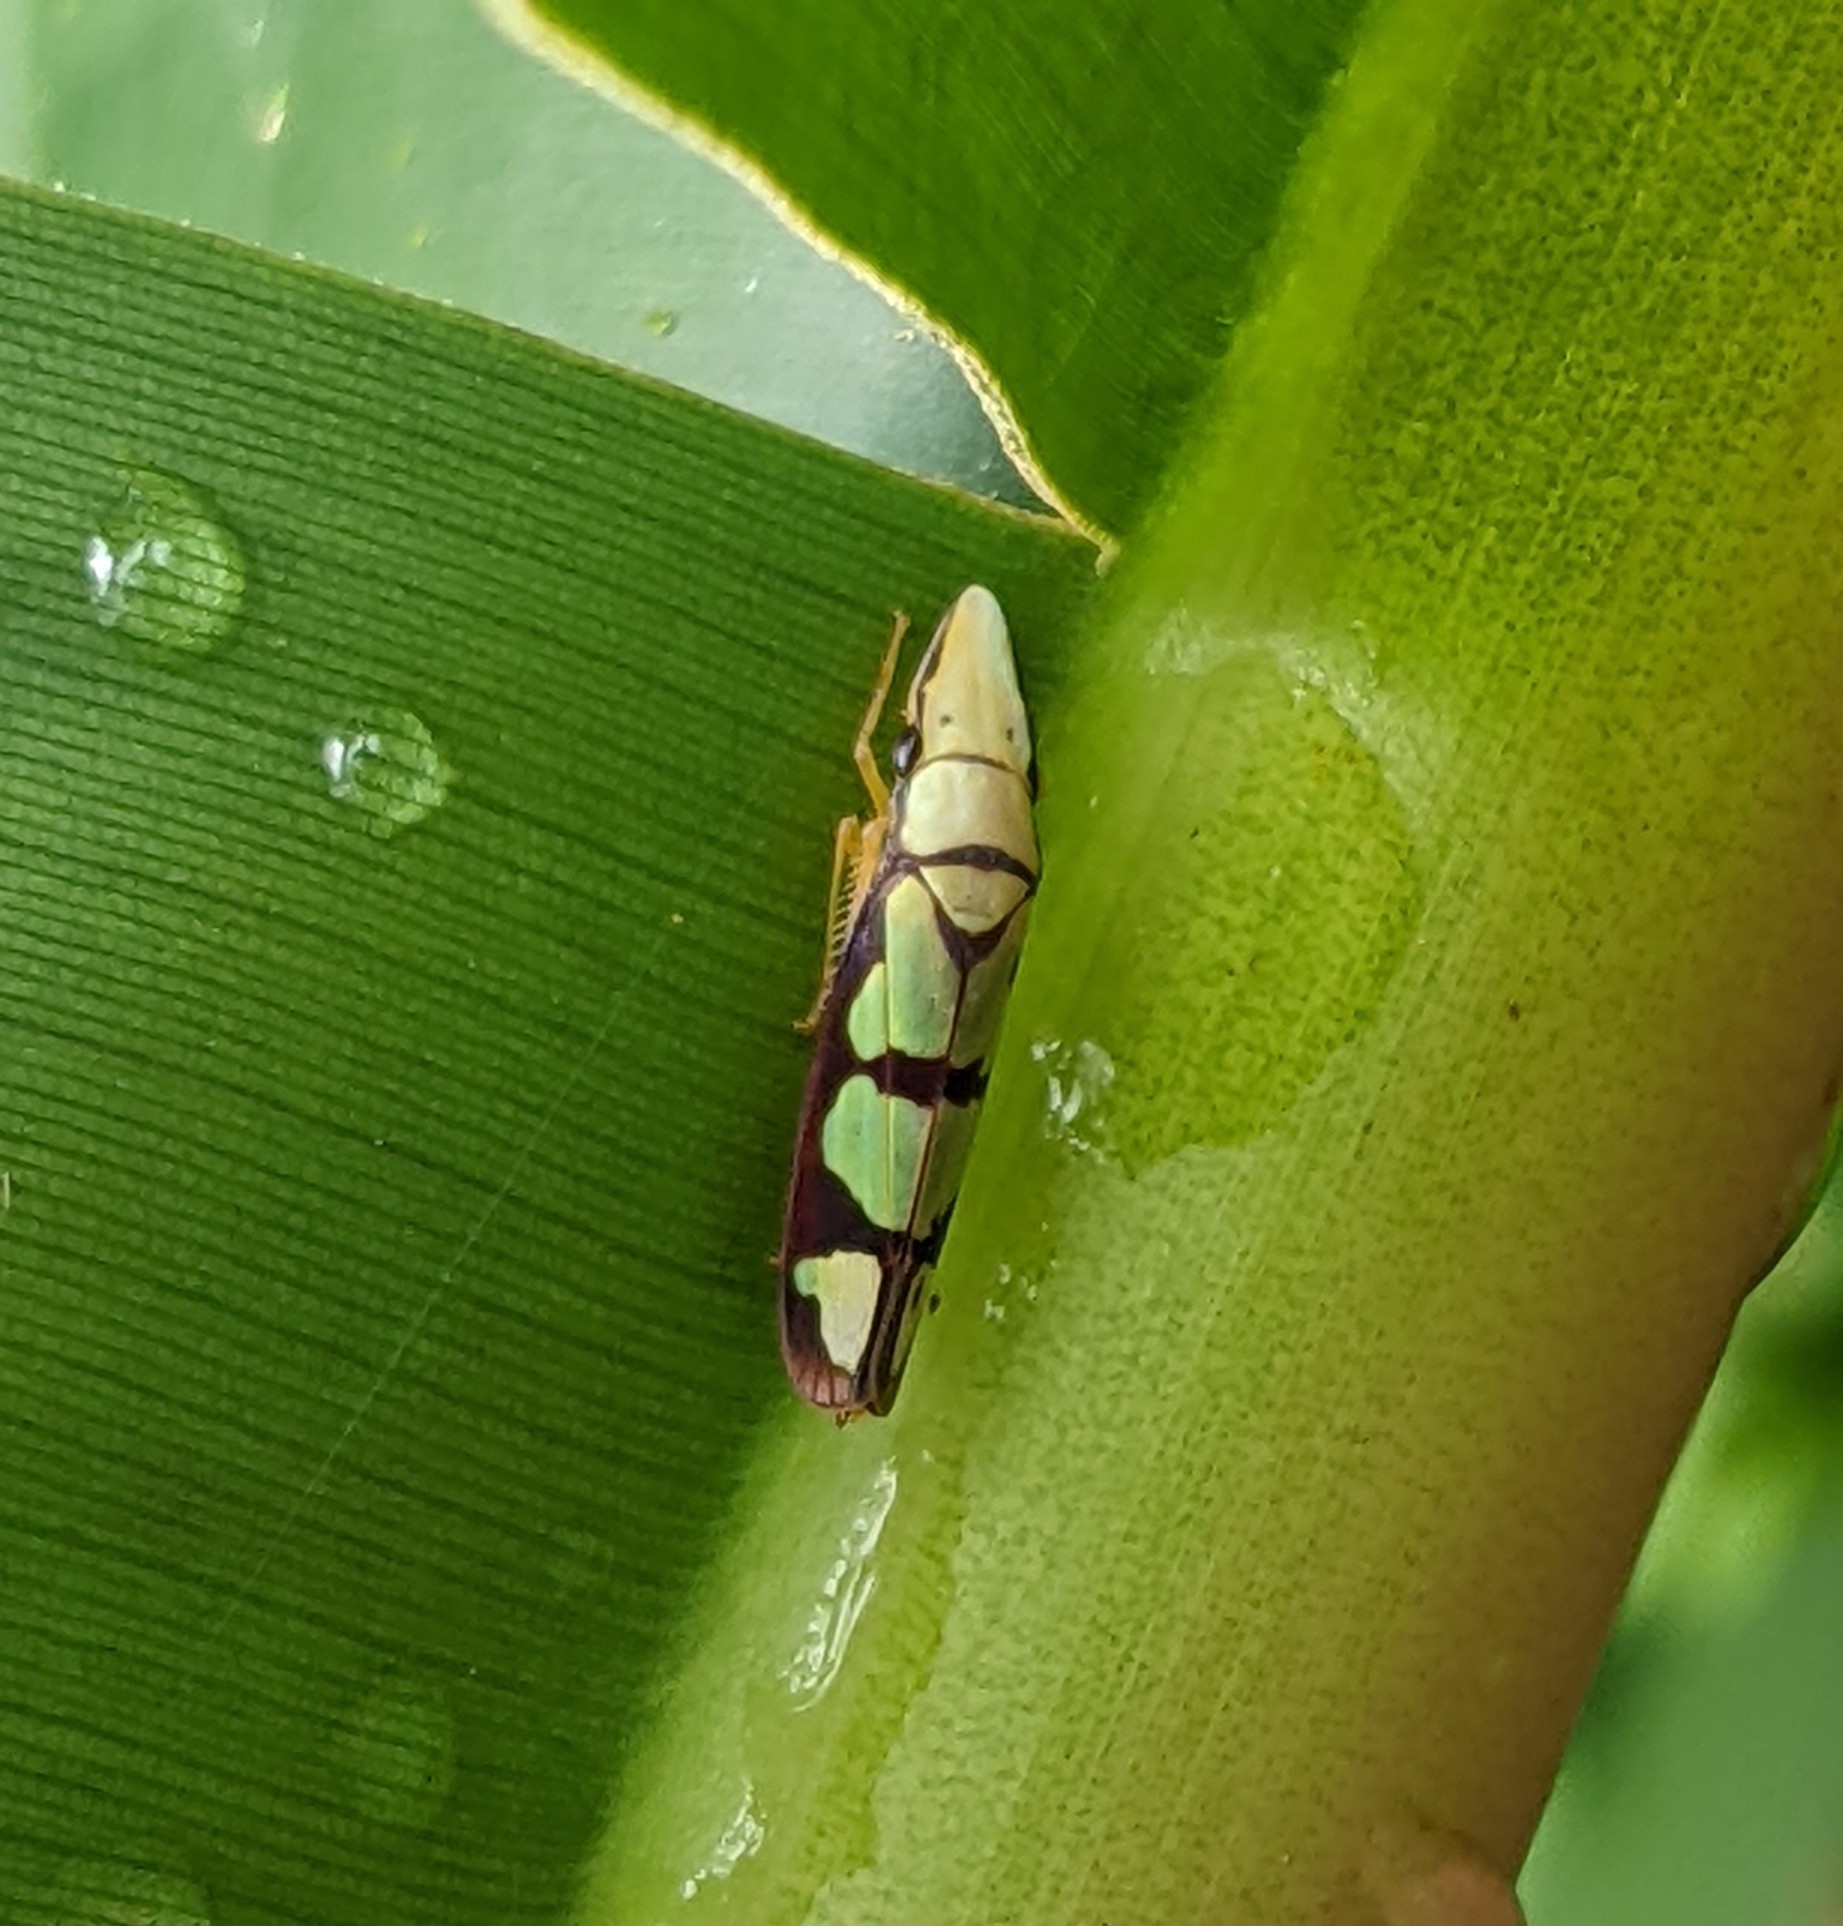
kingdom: Animalia
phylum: Arthropoda
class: Insecta
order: Hemiptera
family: Cicadellidae
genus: Platygonia
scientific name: Platygonia spatulata
